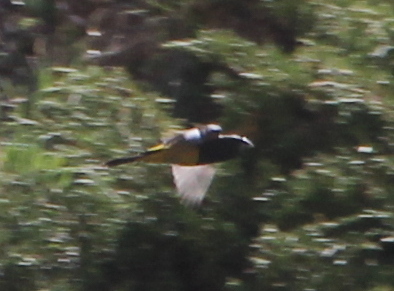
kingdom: Animalia
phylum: Chordata
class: Aves
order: Passeriformes
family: Fringillidae
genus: Mycerobas
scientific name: Mycerobas carnipes
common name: White-winged grosbeak
